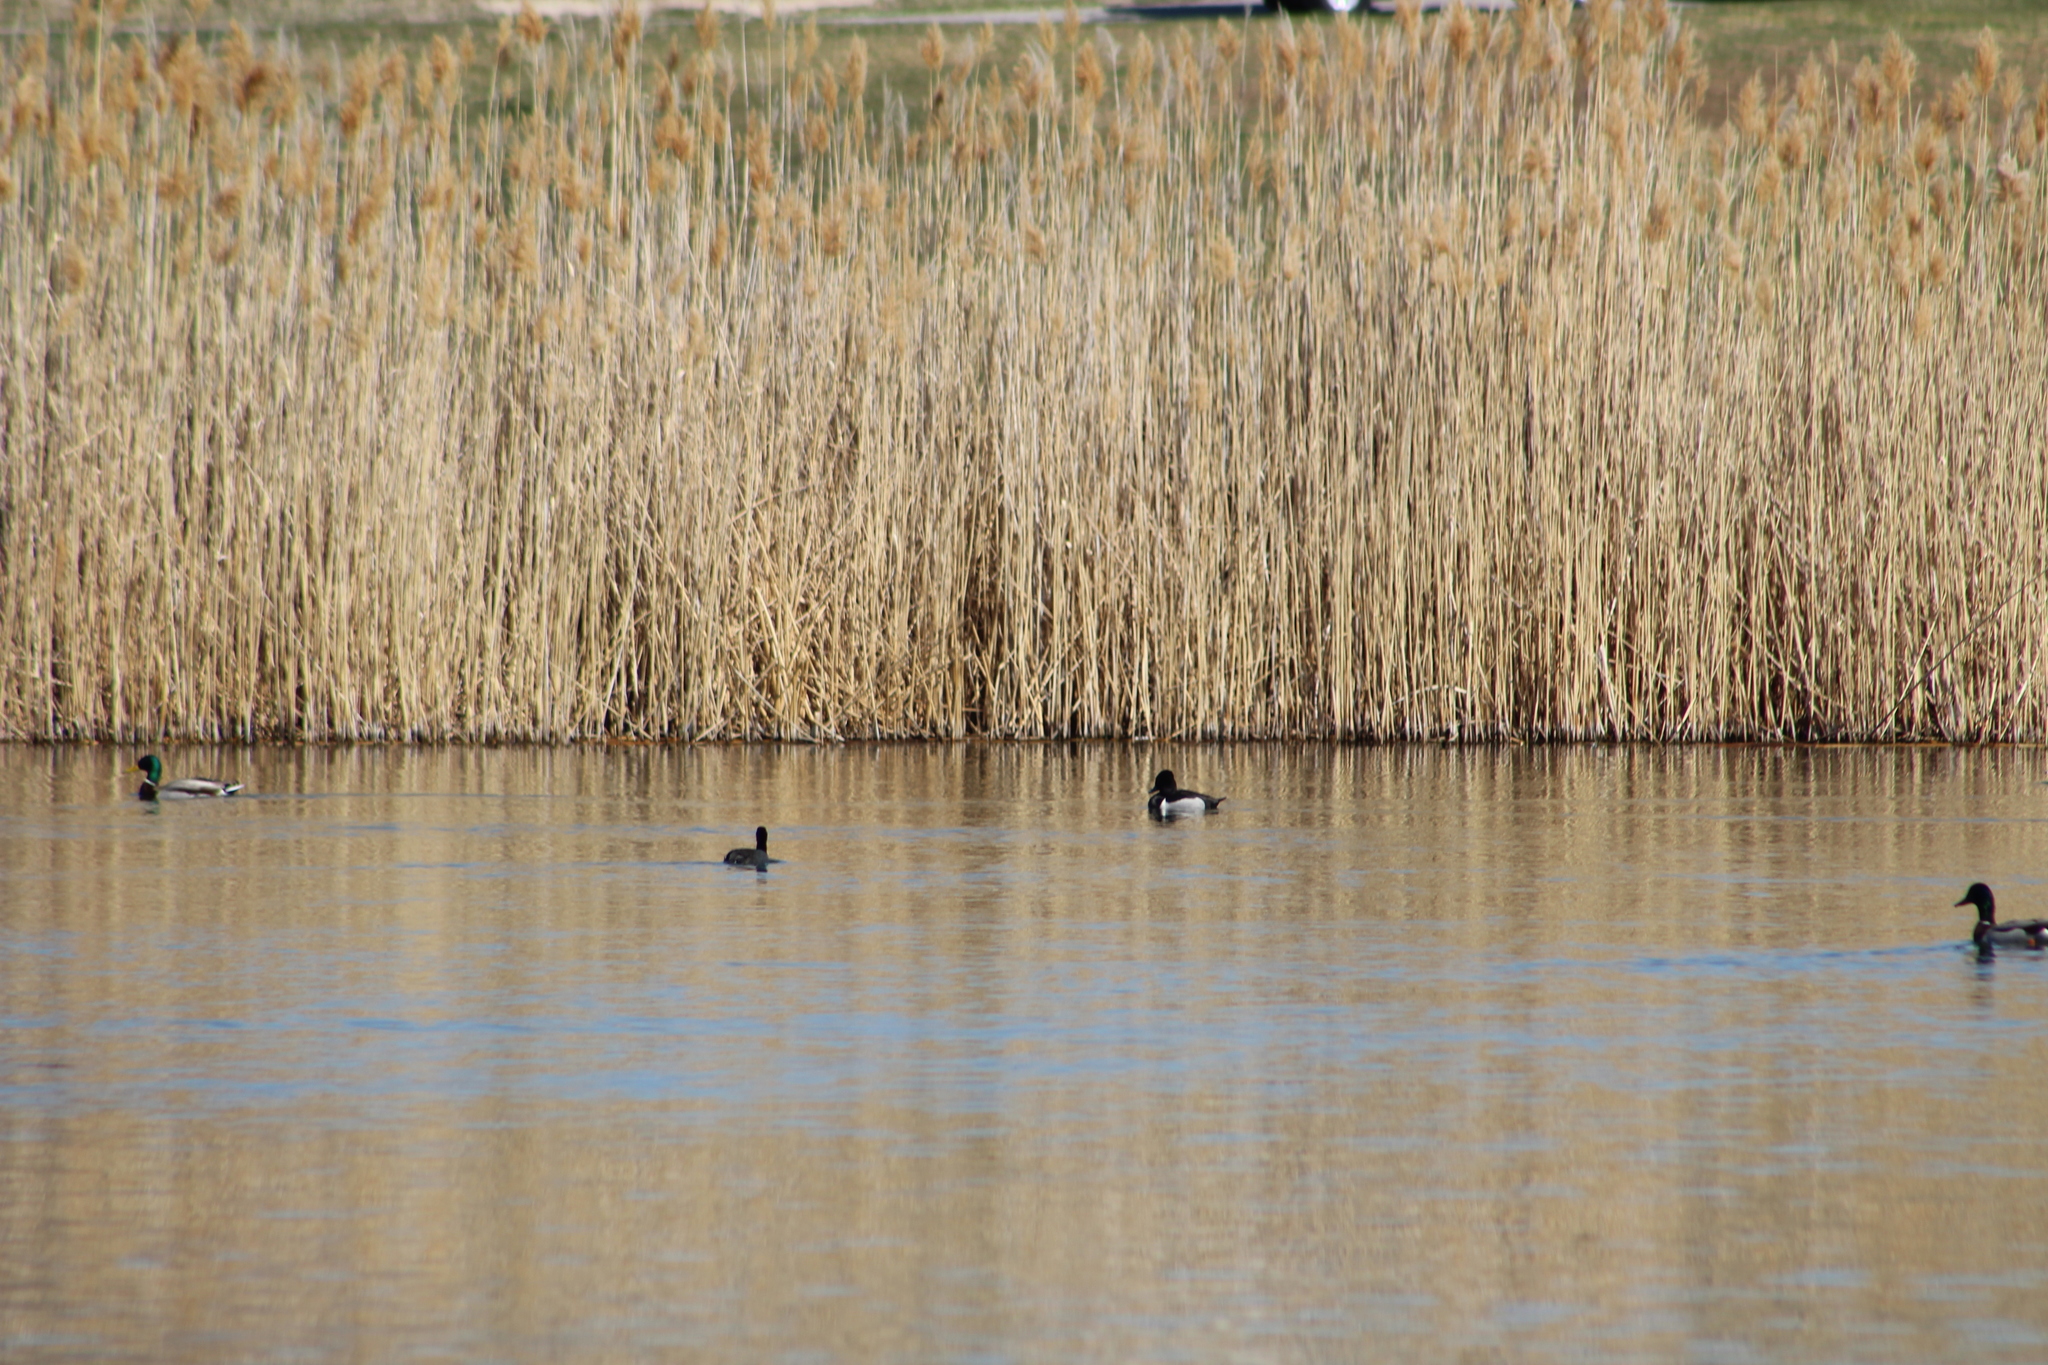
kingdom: Animalia
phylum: Chordata
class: Aves
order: Anseriformes
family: Anatidae
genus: Aythya
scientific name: Aythya collaris
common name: Ring-necked duck
